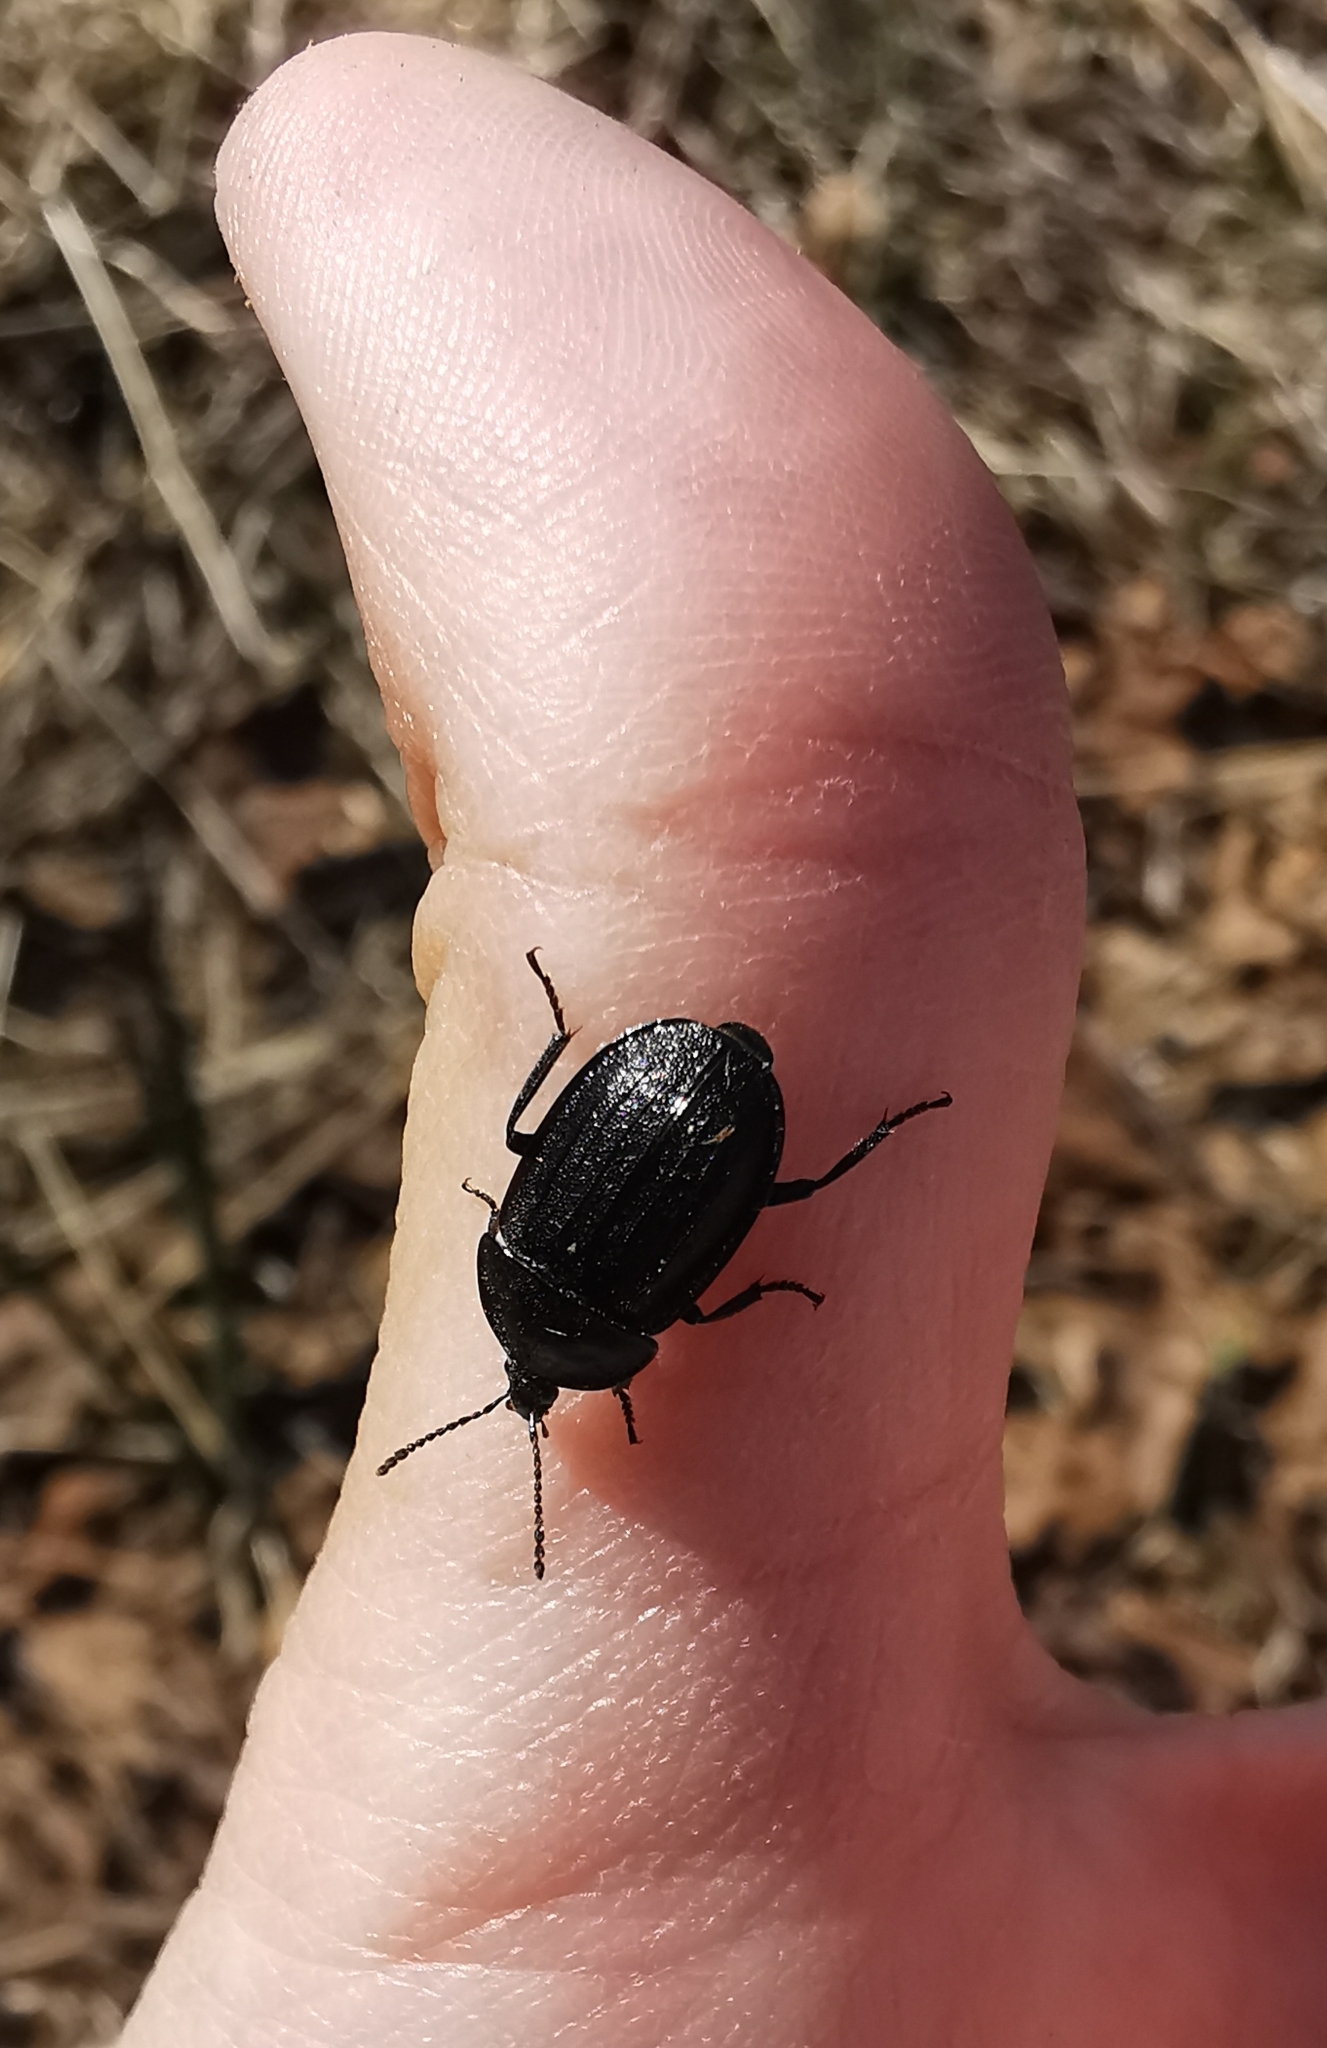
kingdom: Animalia
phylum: Arthropoda
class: Insecta
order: Coleoptera
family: Staphylinidae
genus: Silpha
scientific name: Silpha atrata
